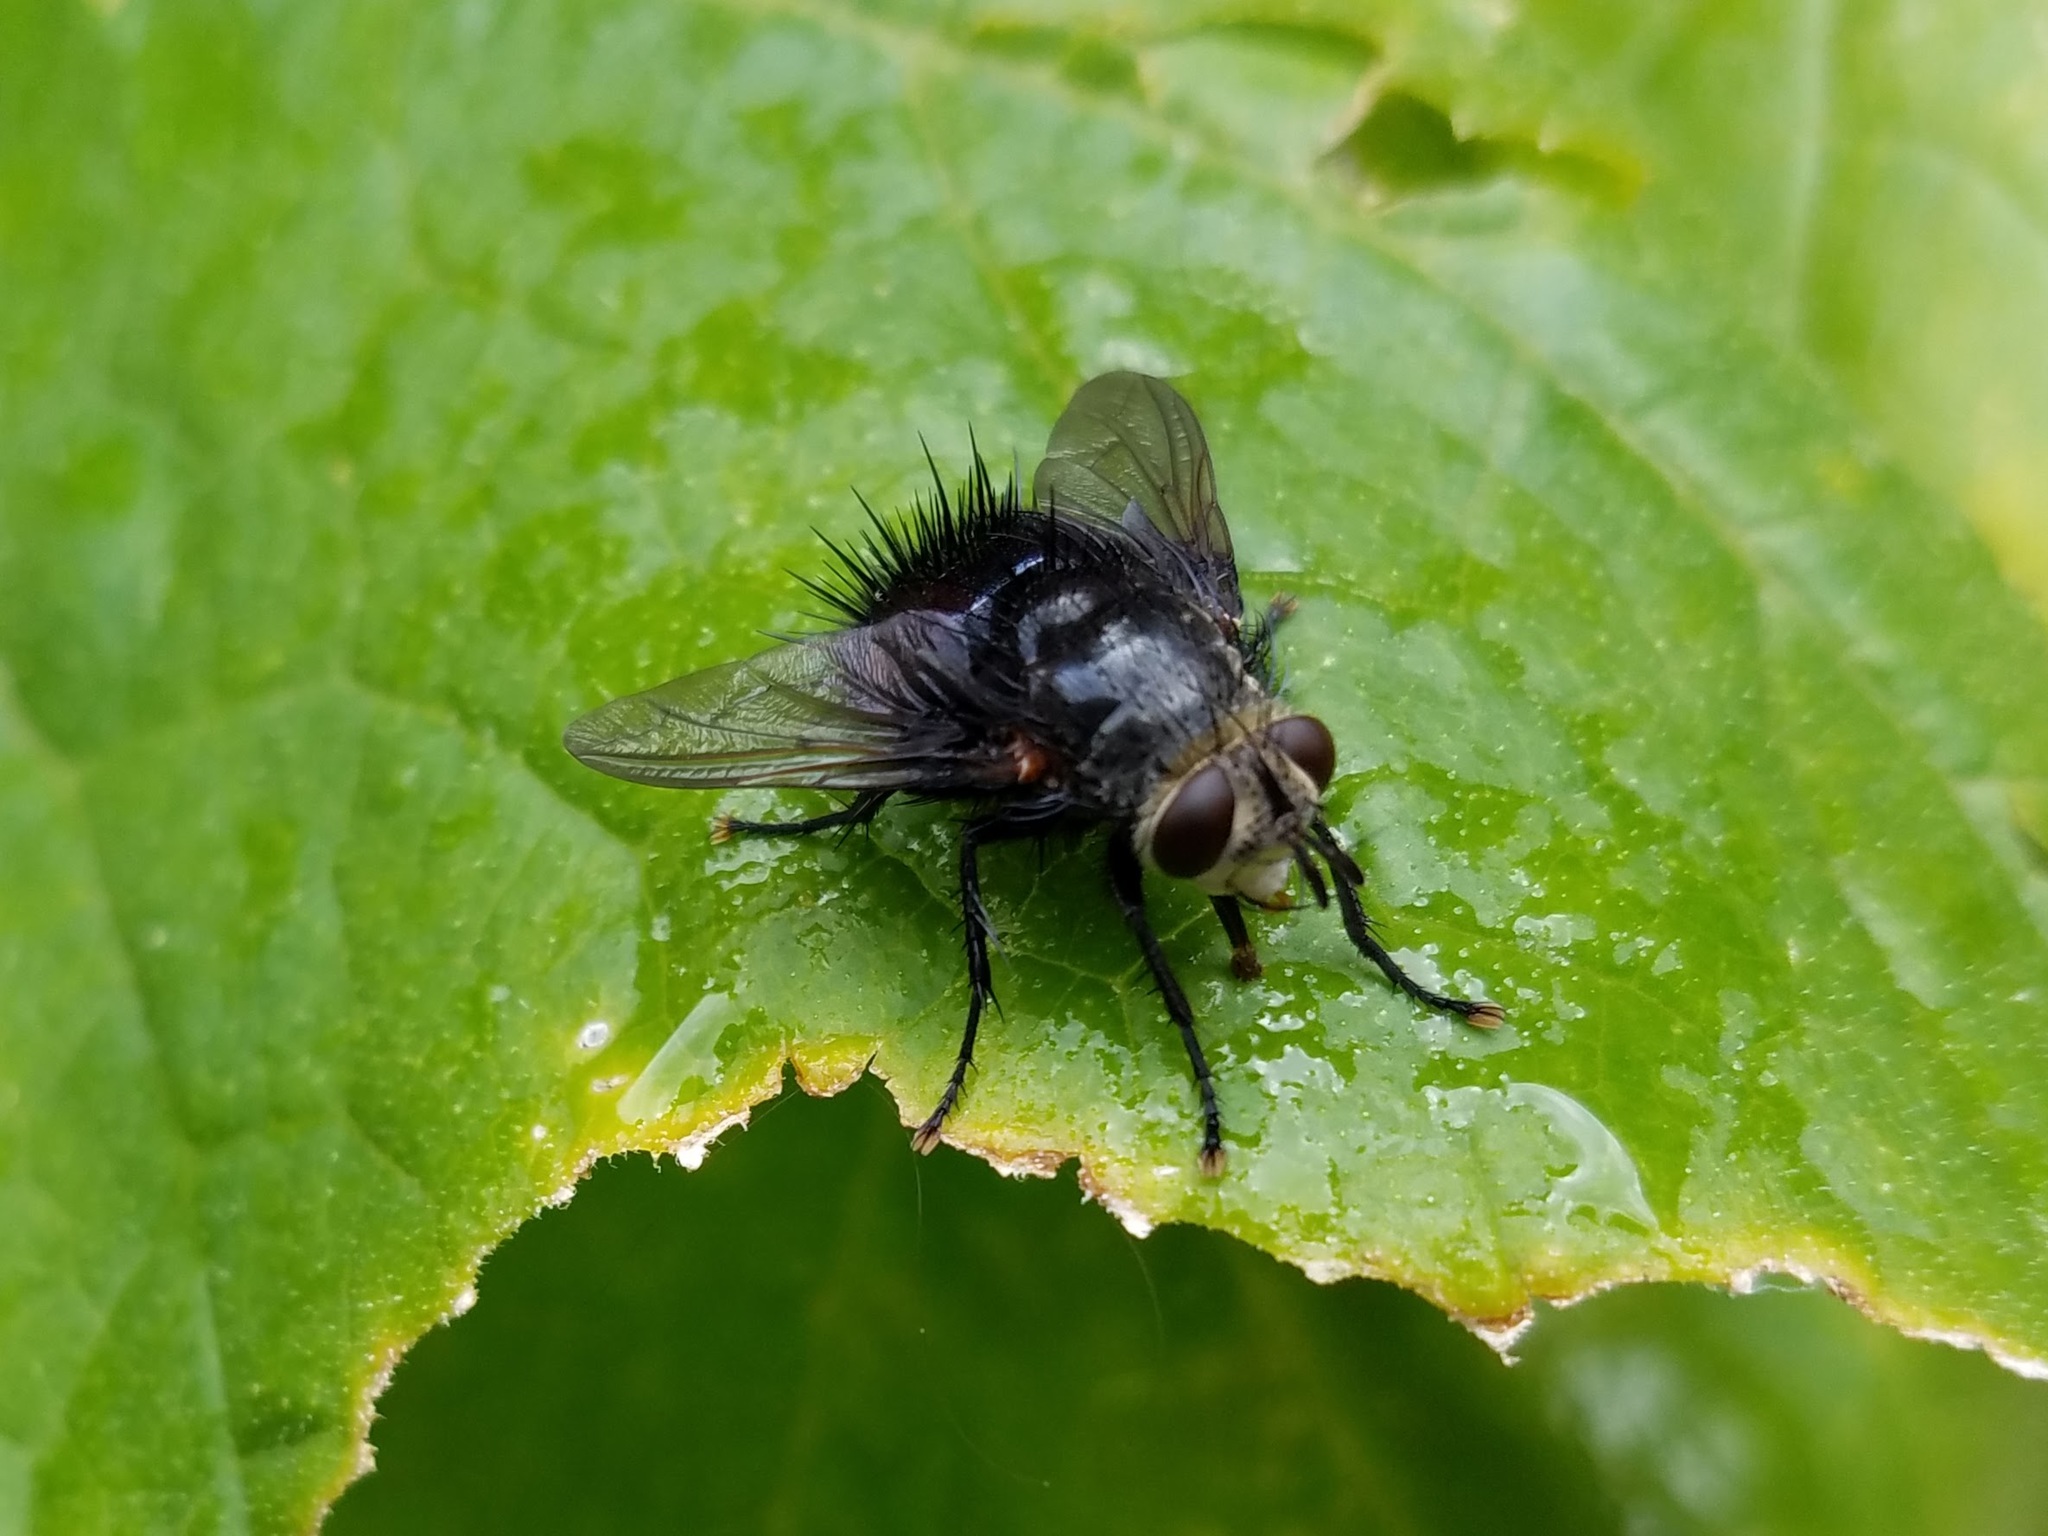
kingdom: Animalia
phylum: Arthropoda
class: Insecta
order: Diptera
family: Tachinidae
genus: Juriniopsis
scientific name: Juriniopsis adusta
